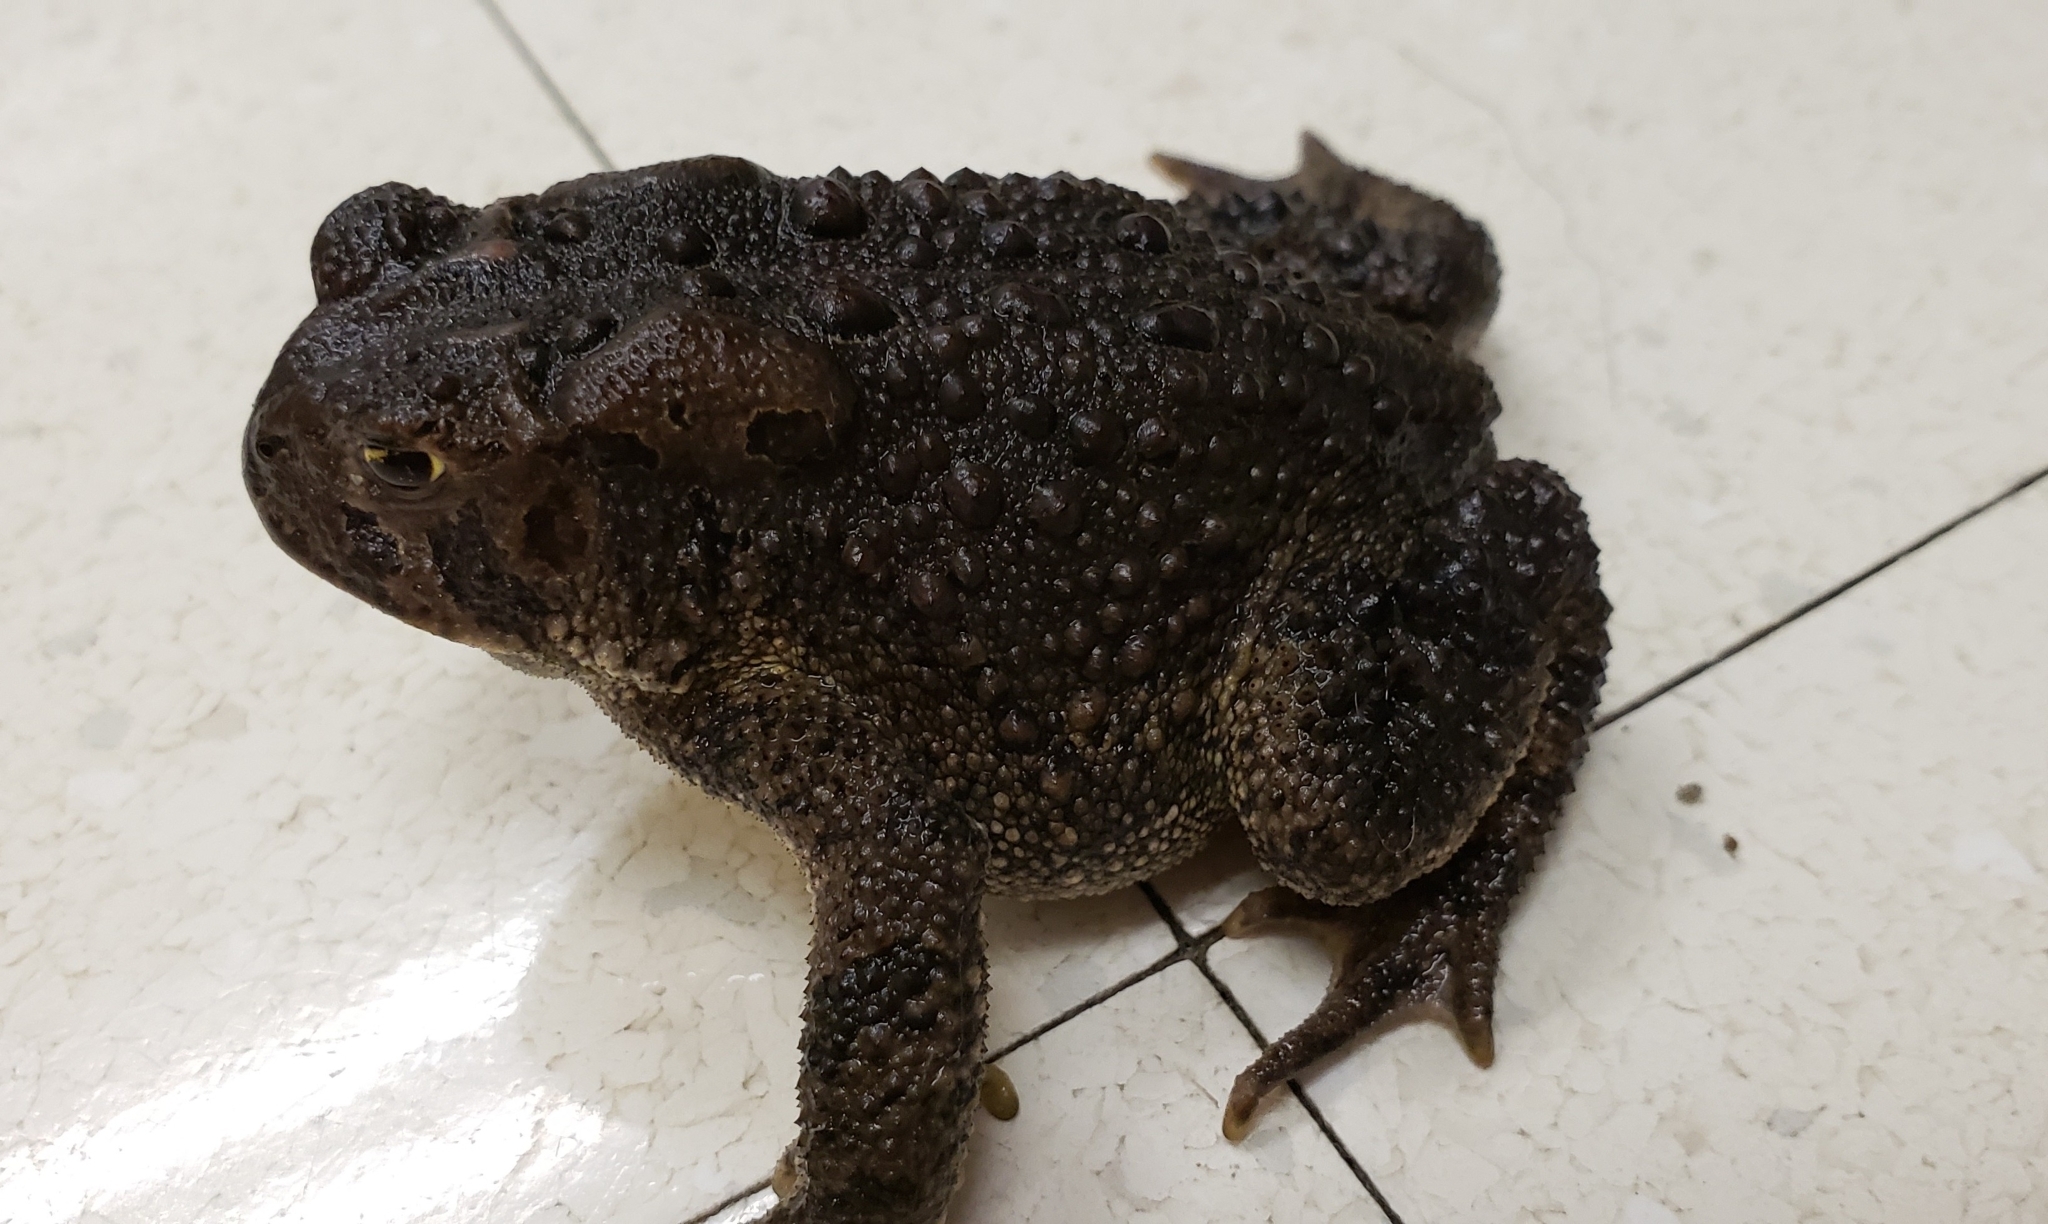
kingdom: Animalia
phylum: Chordata
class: Amphibia
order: Anura
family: Bufonidae
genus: Anaxyrus
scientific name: Anaxyrus americanus
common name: American toad
